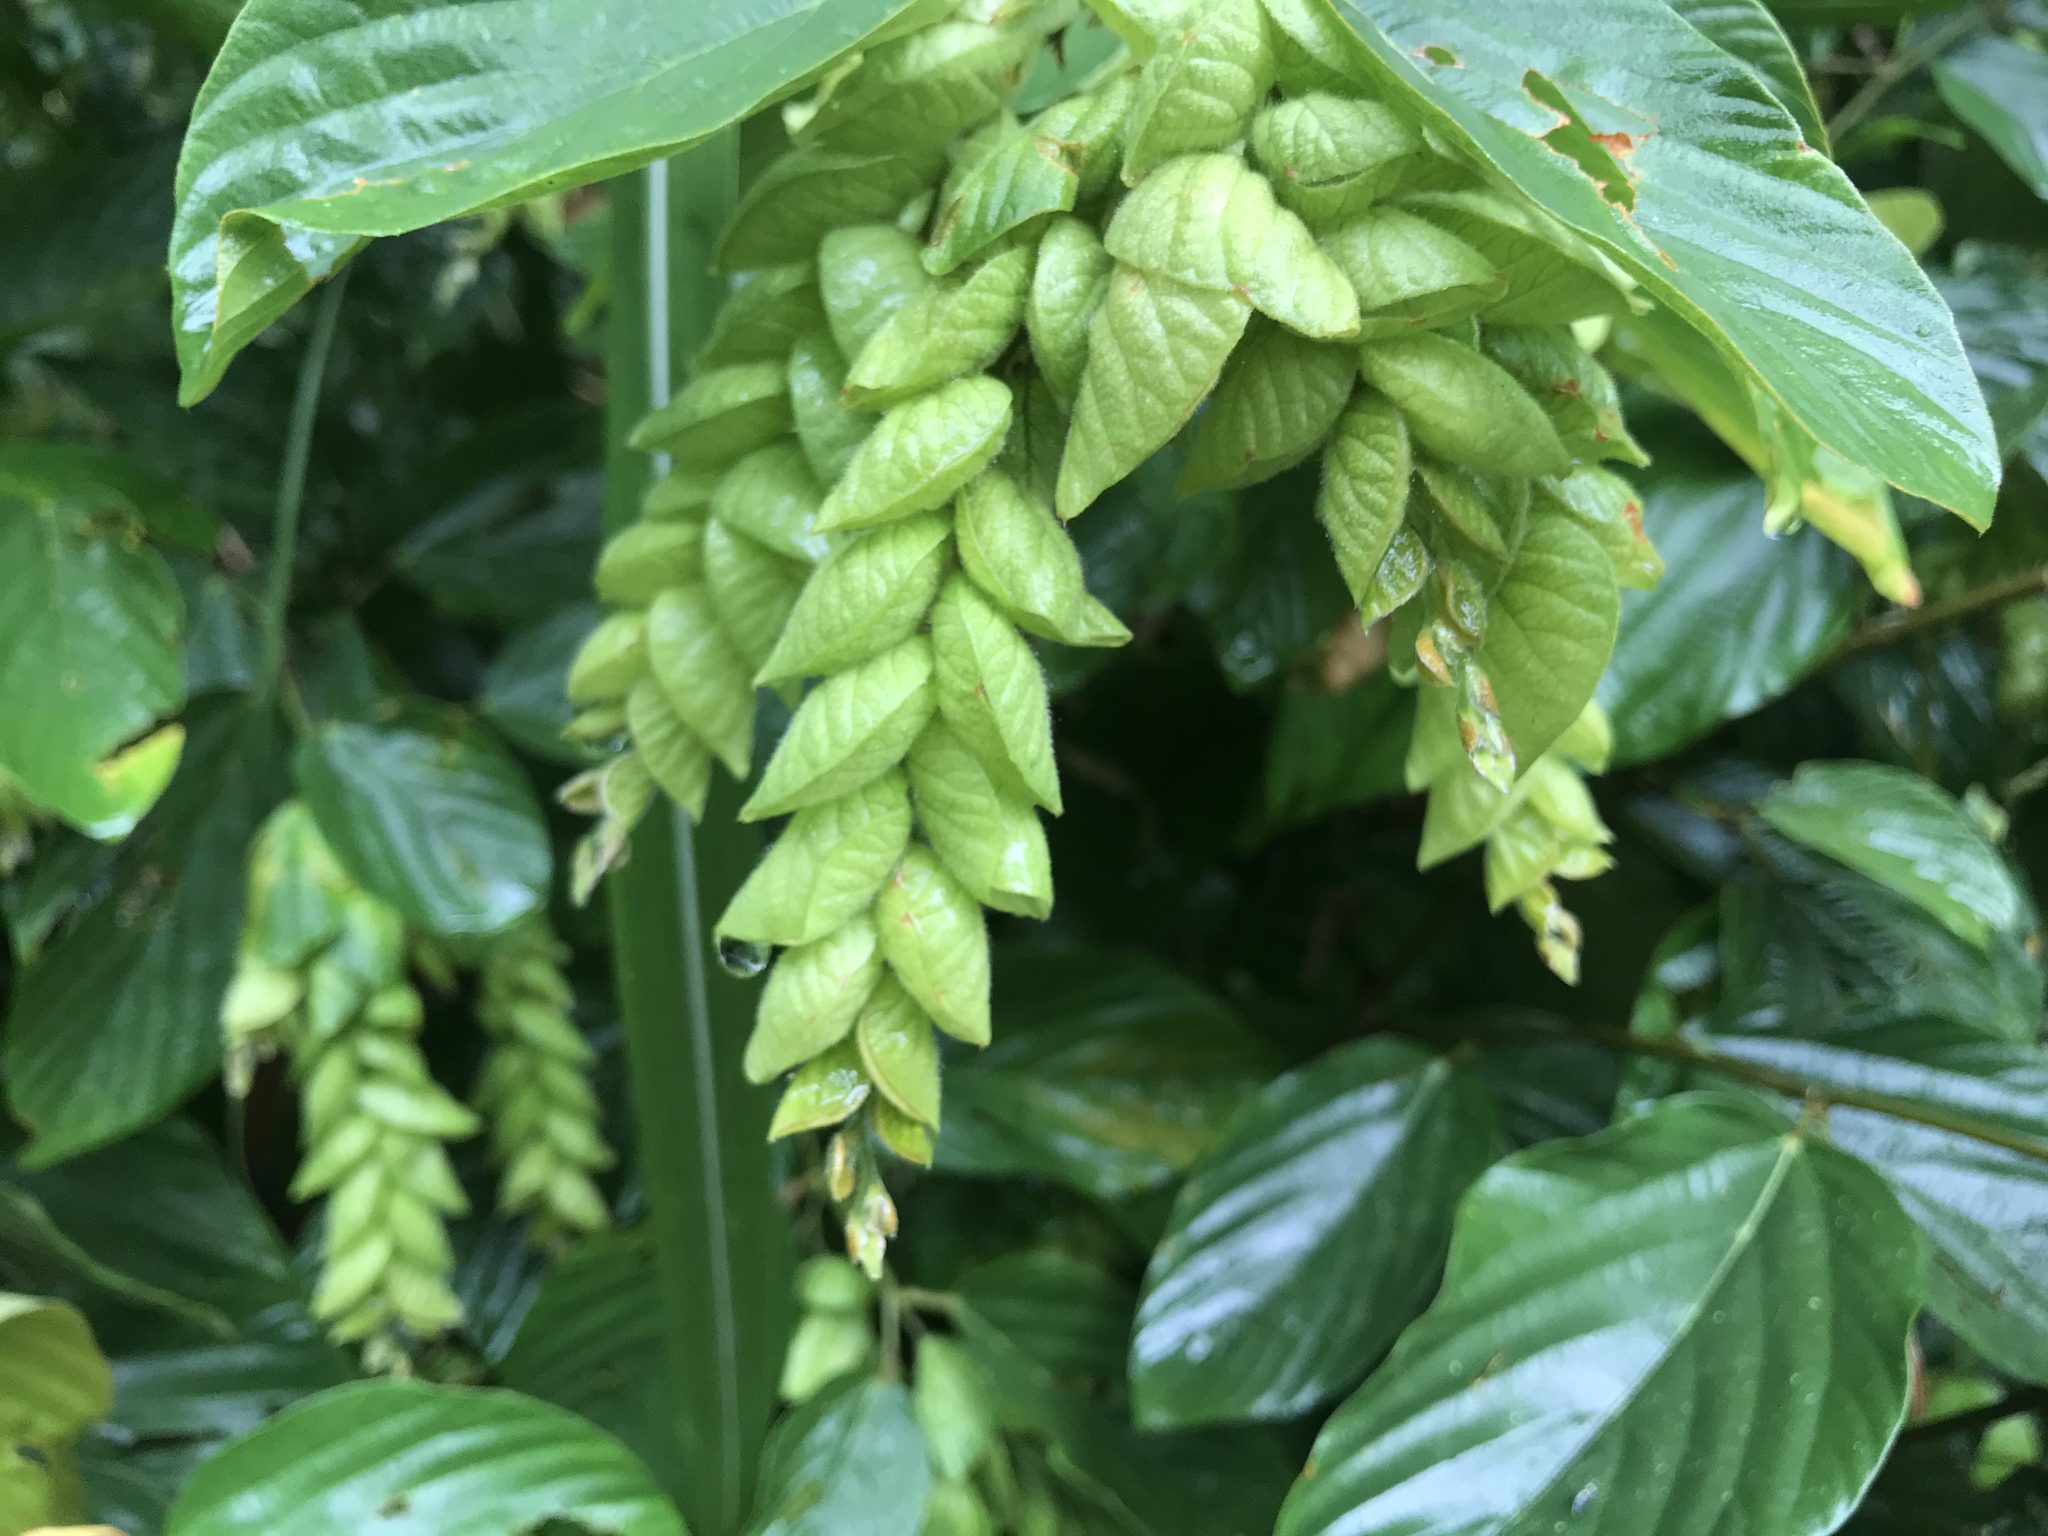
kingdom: Plantae
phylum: Tracheophyta
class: Magnoliopsida
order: Fabales
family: Fabaceae
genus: Flemingia
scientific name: Flemingia strobilifera
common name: Wild hops
